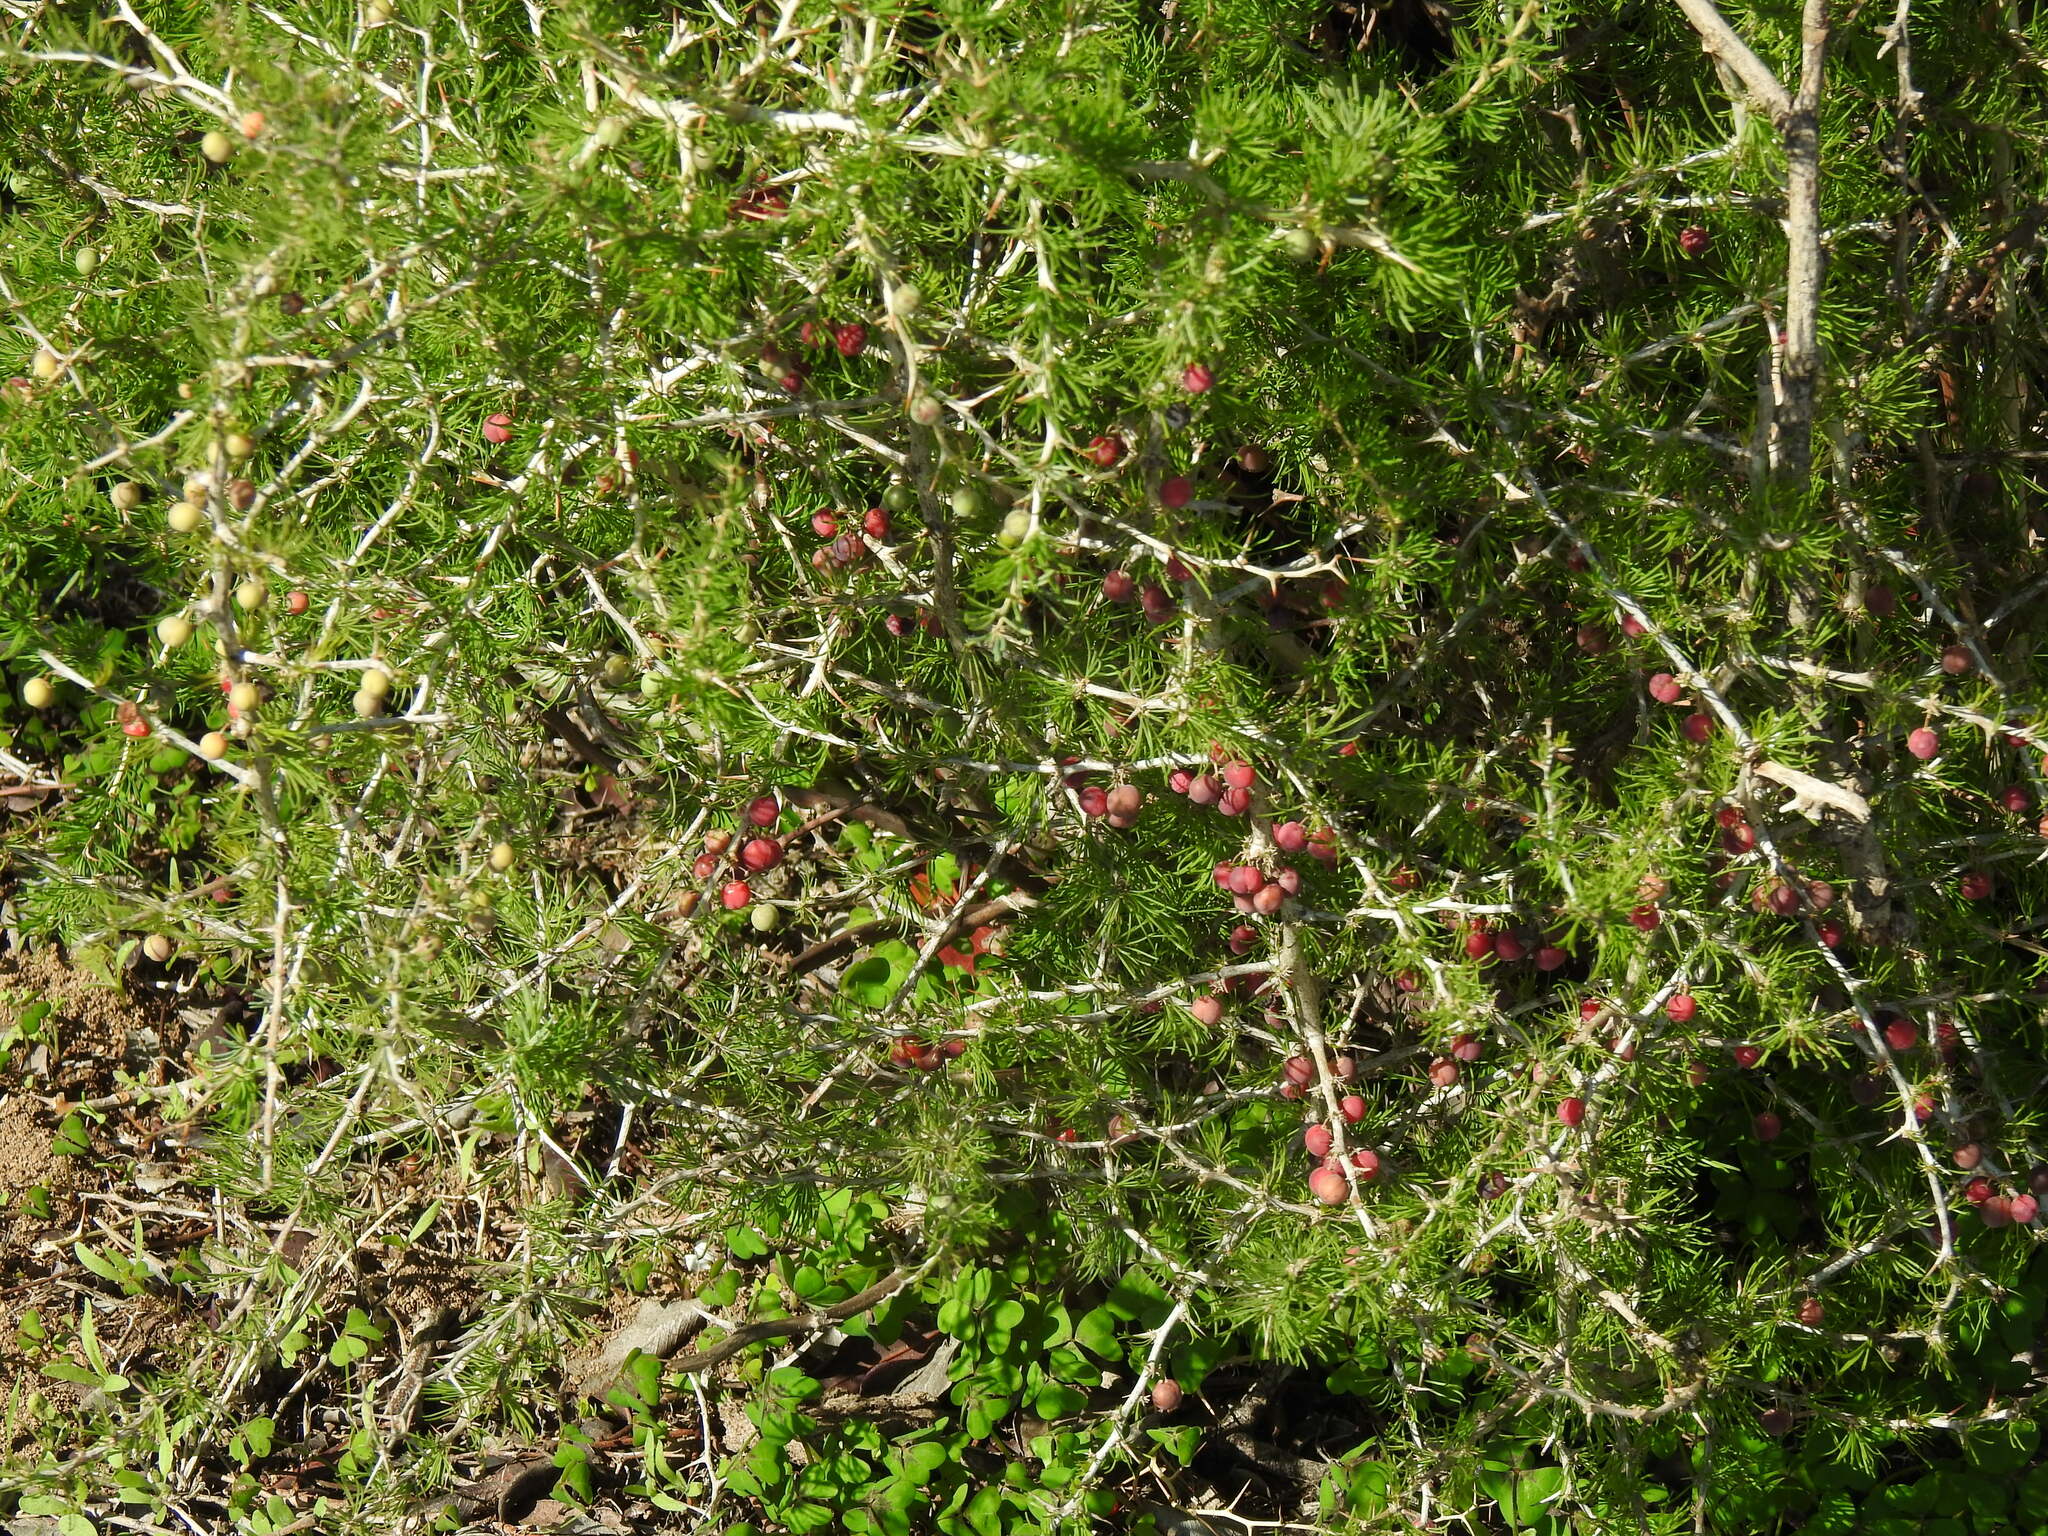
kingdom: Plantae
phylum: Tracheophyta
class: Liliopsida
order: Asparagales
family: Asparagaceae
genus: Asparagus
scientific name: Asparagus albus
